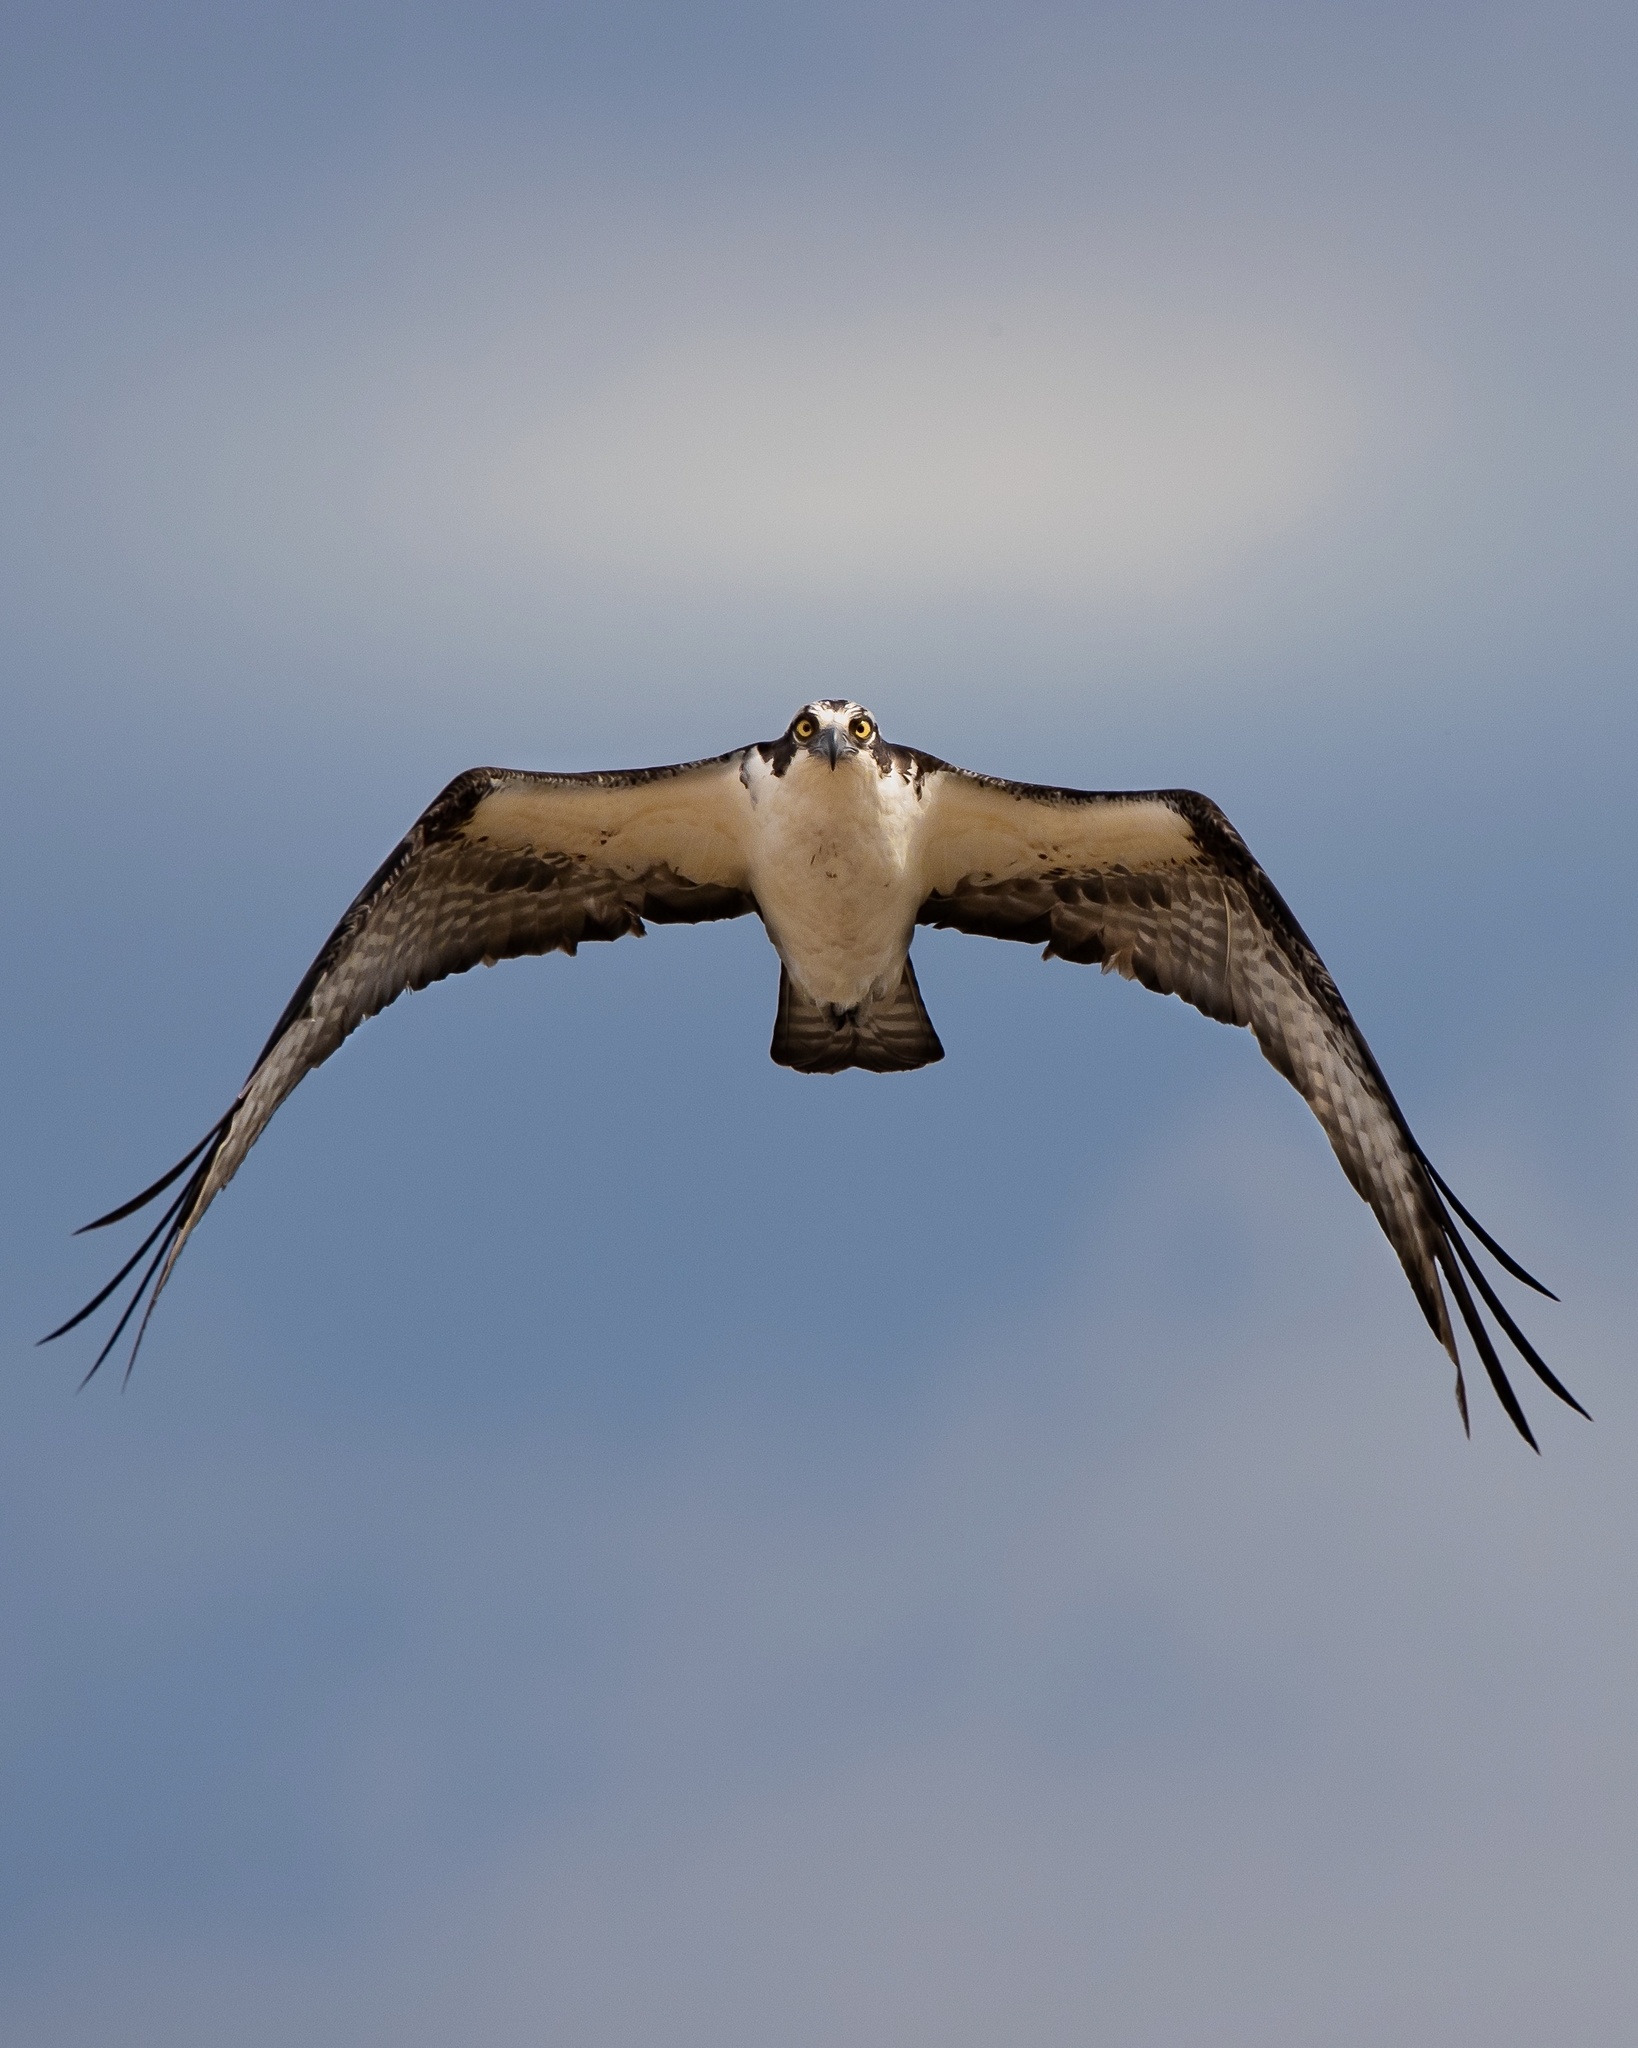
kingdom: Animalia
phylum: Chordata
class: Aves
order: Accipitriformes
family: Pandionidae
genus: Pandion
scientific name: Pandion haliaetus
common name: Osprey
